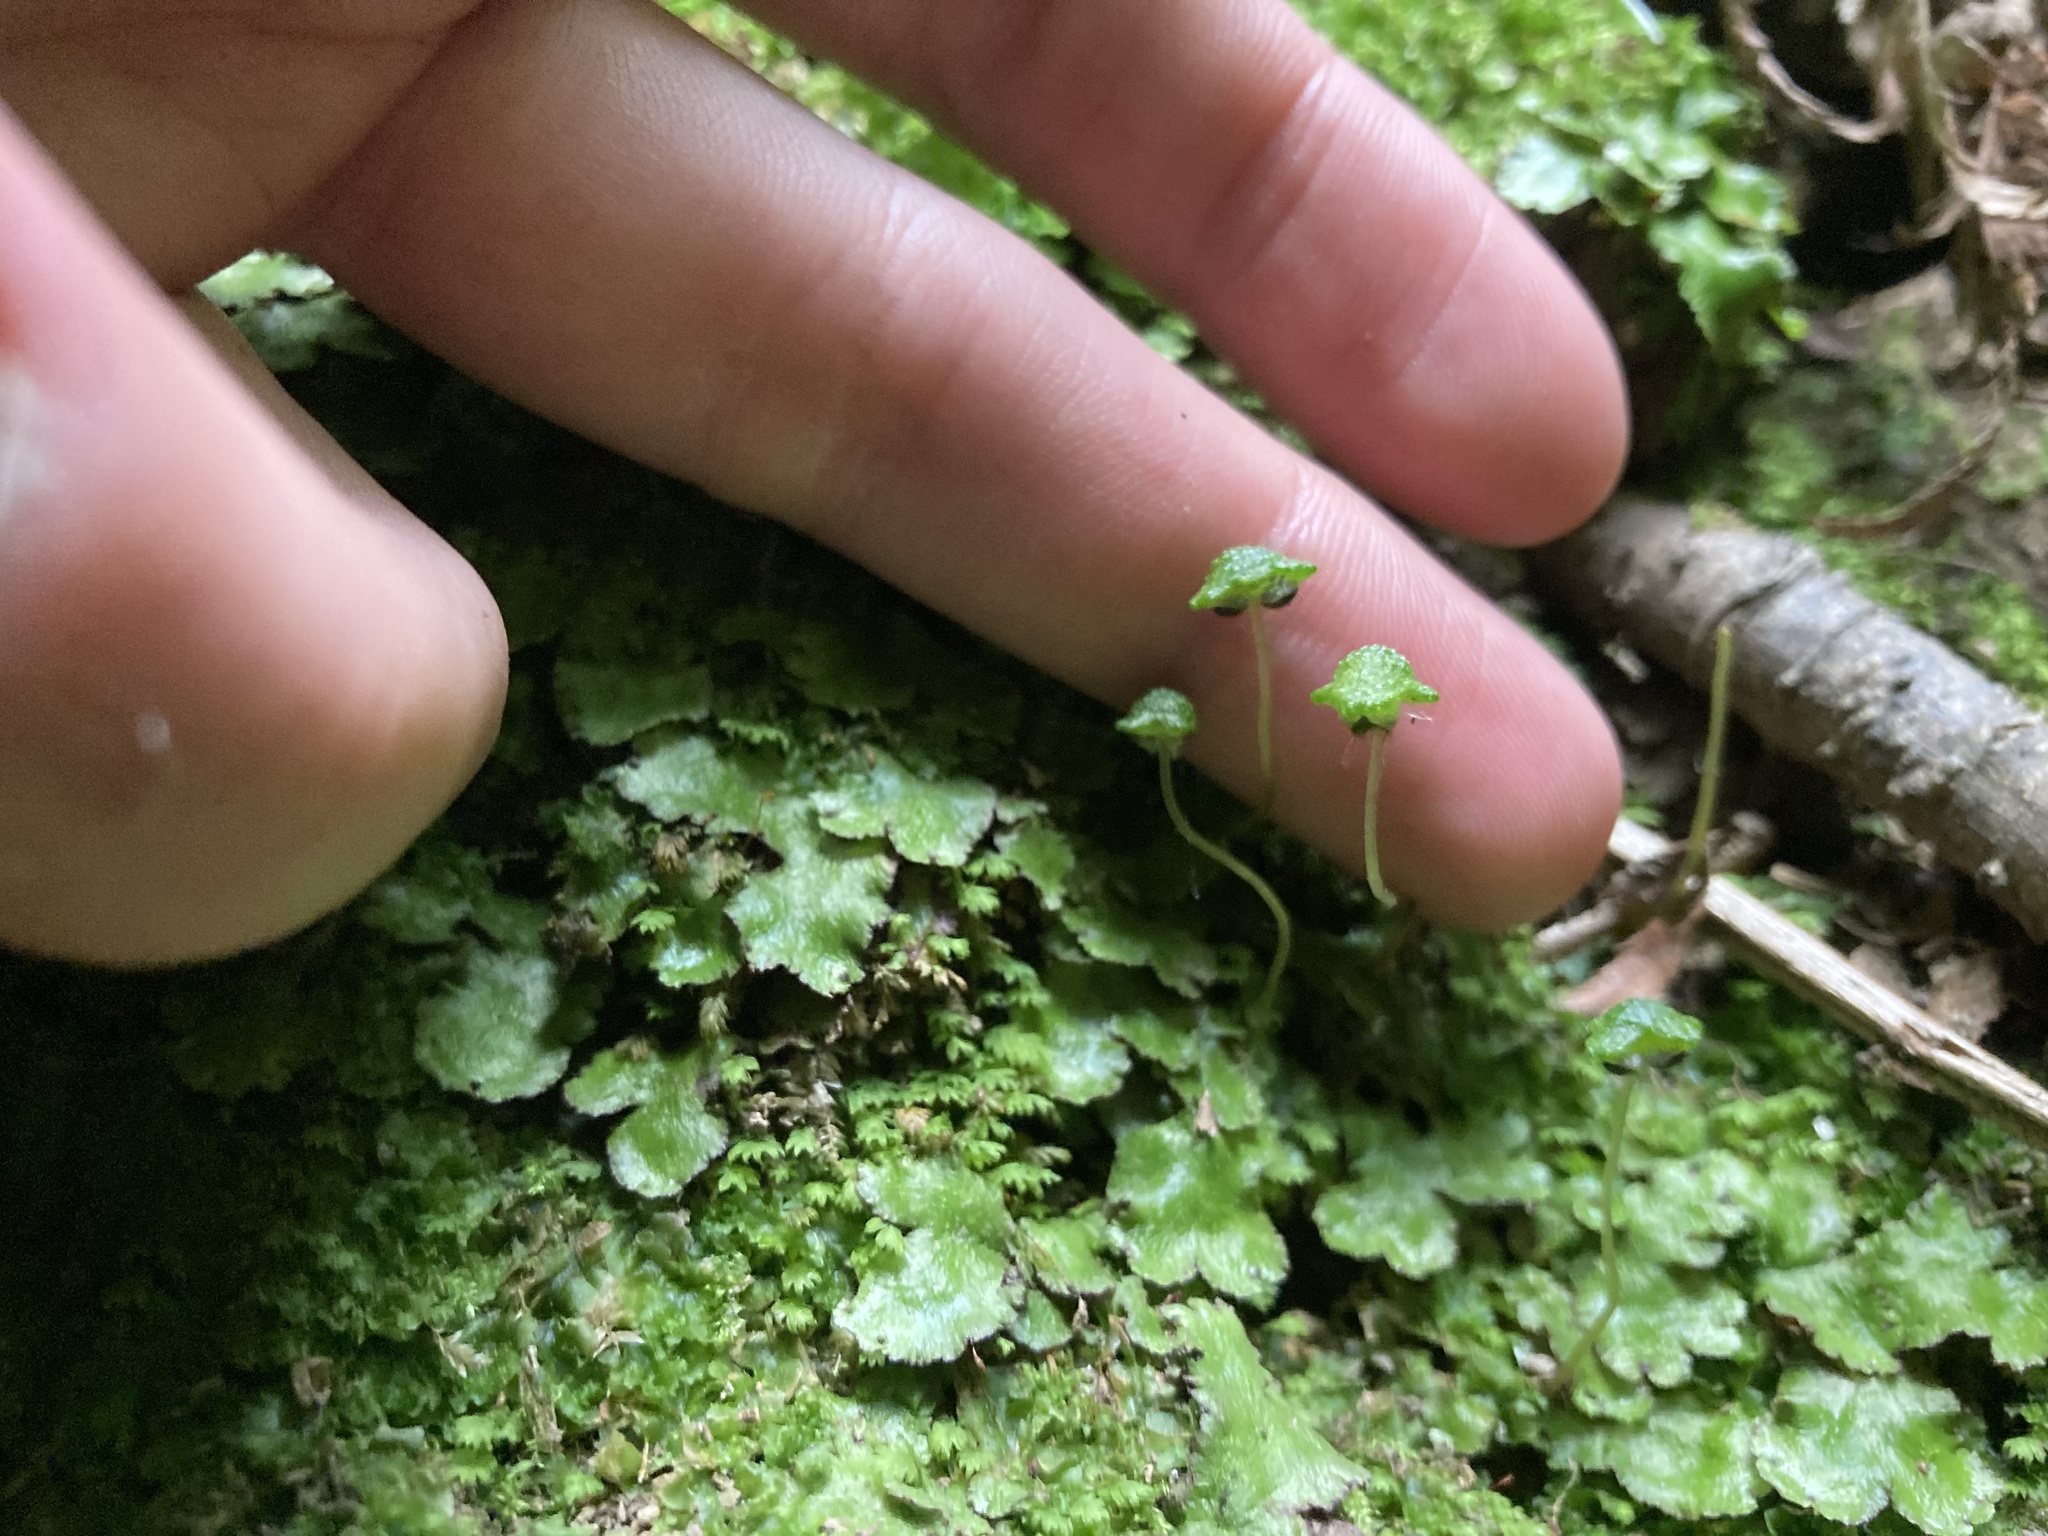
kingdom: Plantae
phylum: Marchantiophyta
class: Marchantiopsida
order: Marchantiales
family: Aytoniaceae
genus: Reboulia
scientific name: Reboulia hemisphaerica
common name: Purple-margined liverwort
